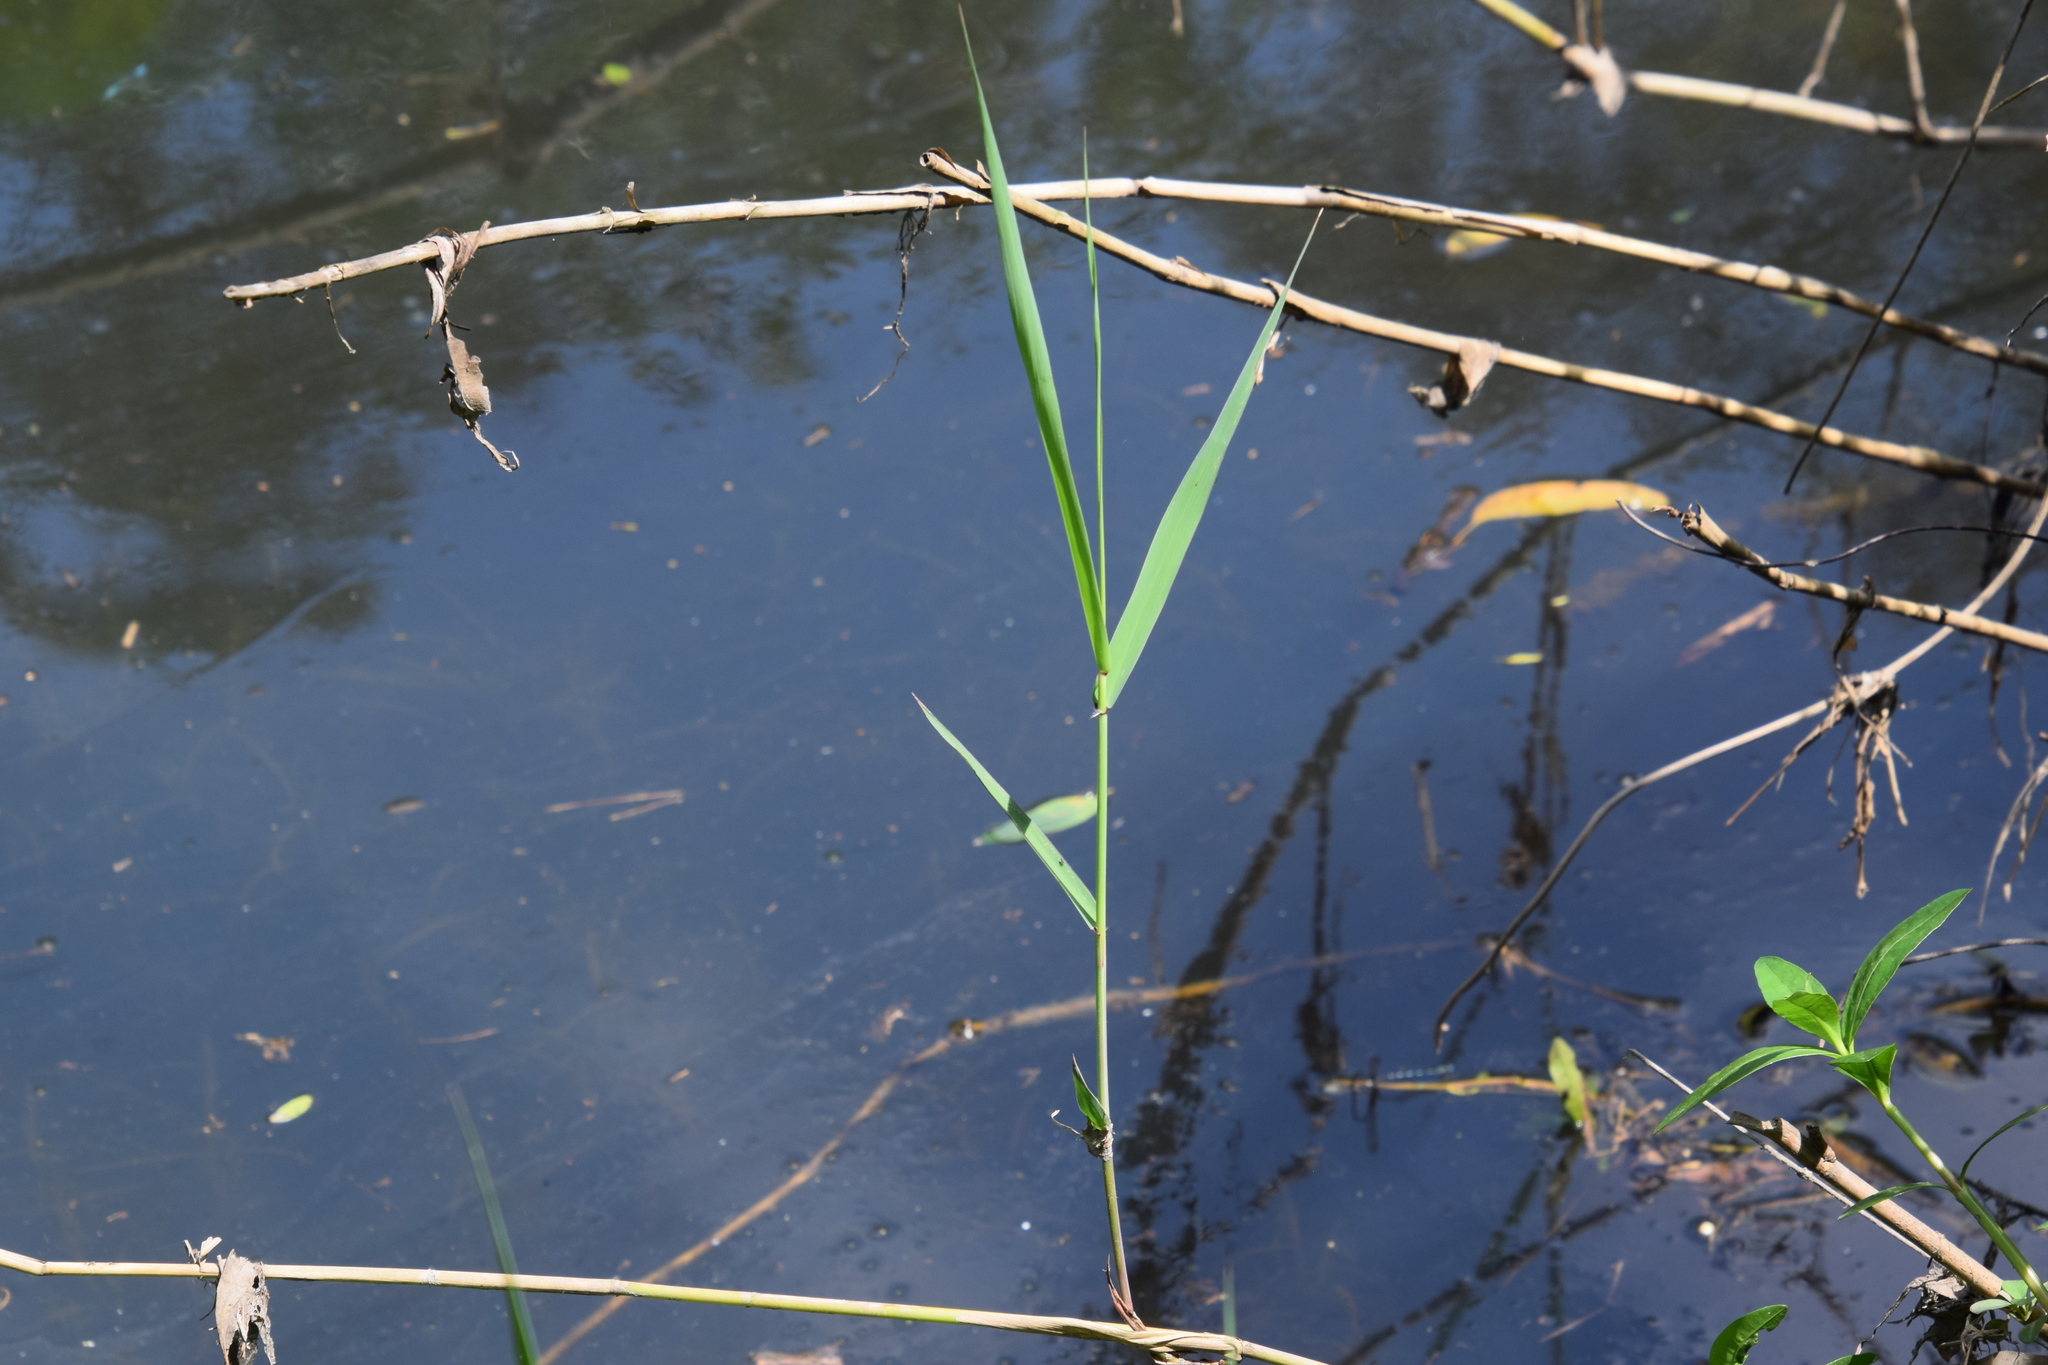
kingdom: Plantae
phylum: Tracheophyta
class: Liliopsida
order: Poales
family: Poaceae
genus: Phragmites
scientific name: Phragmites australis
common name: Common reed
